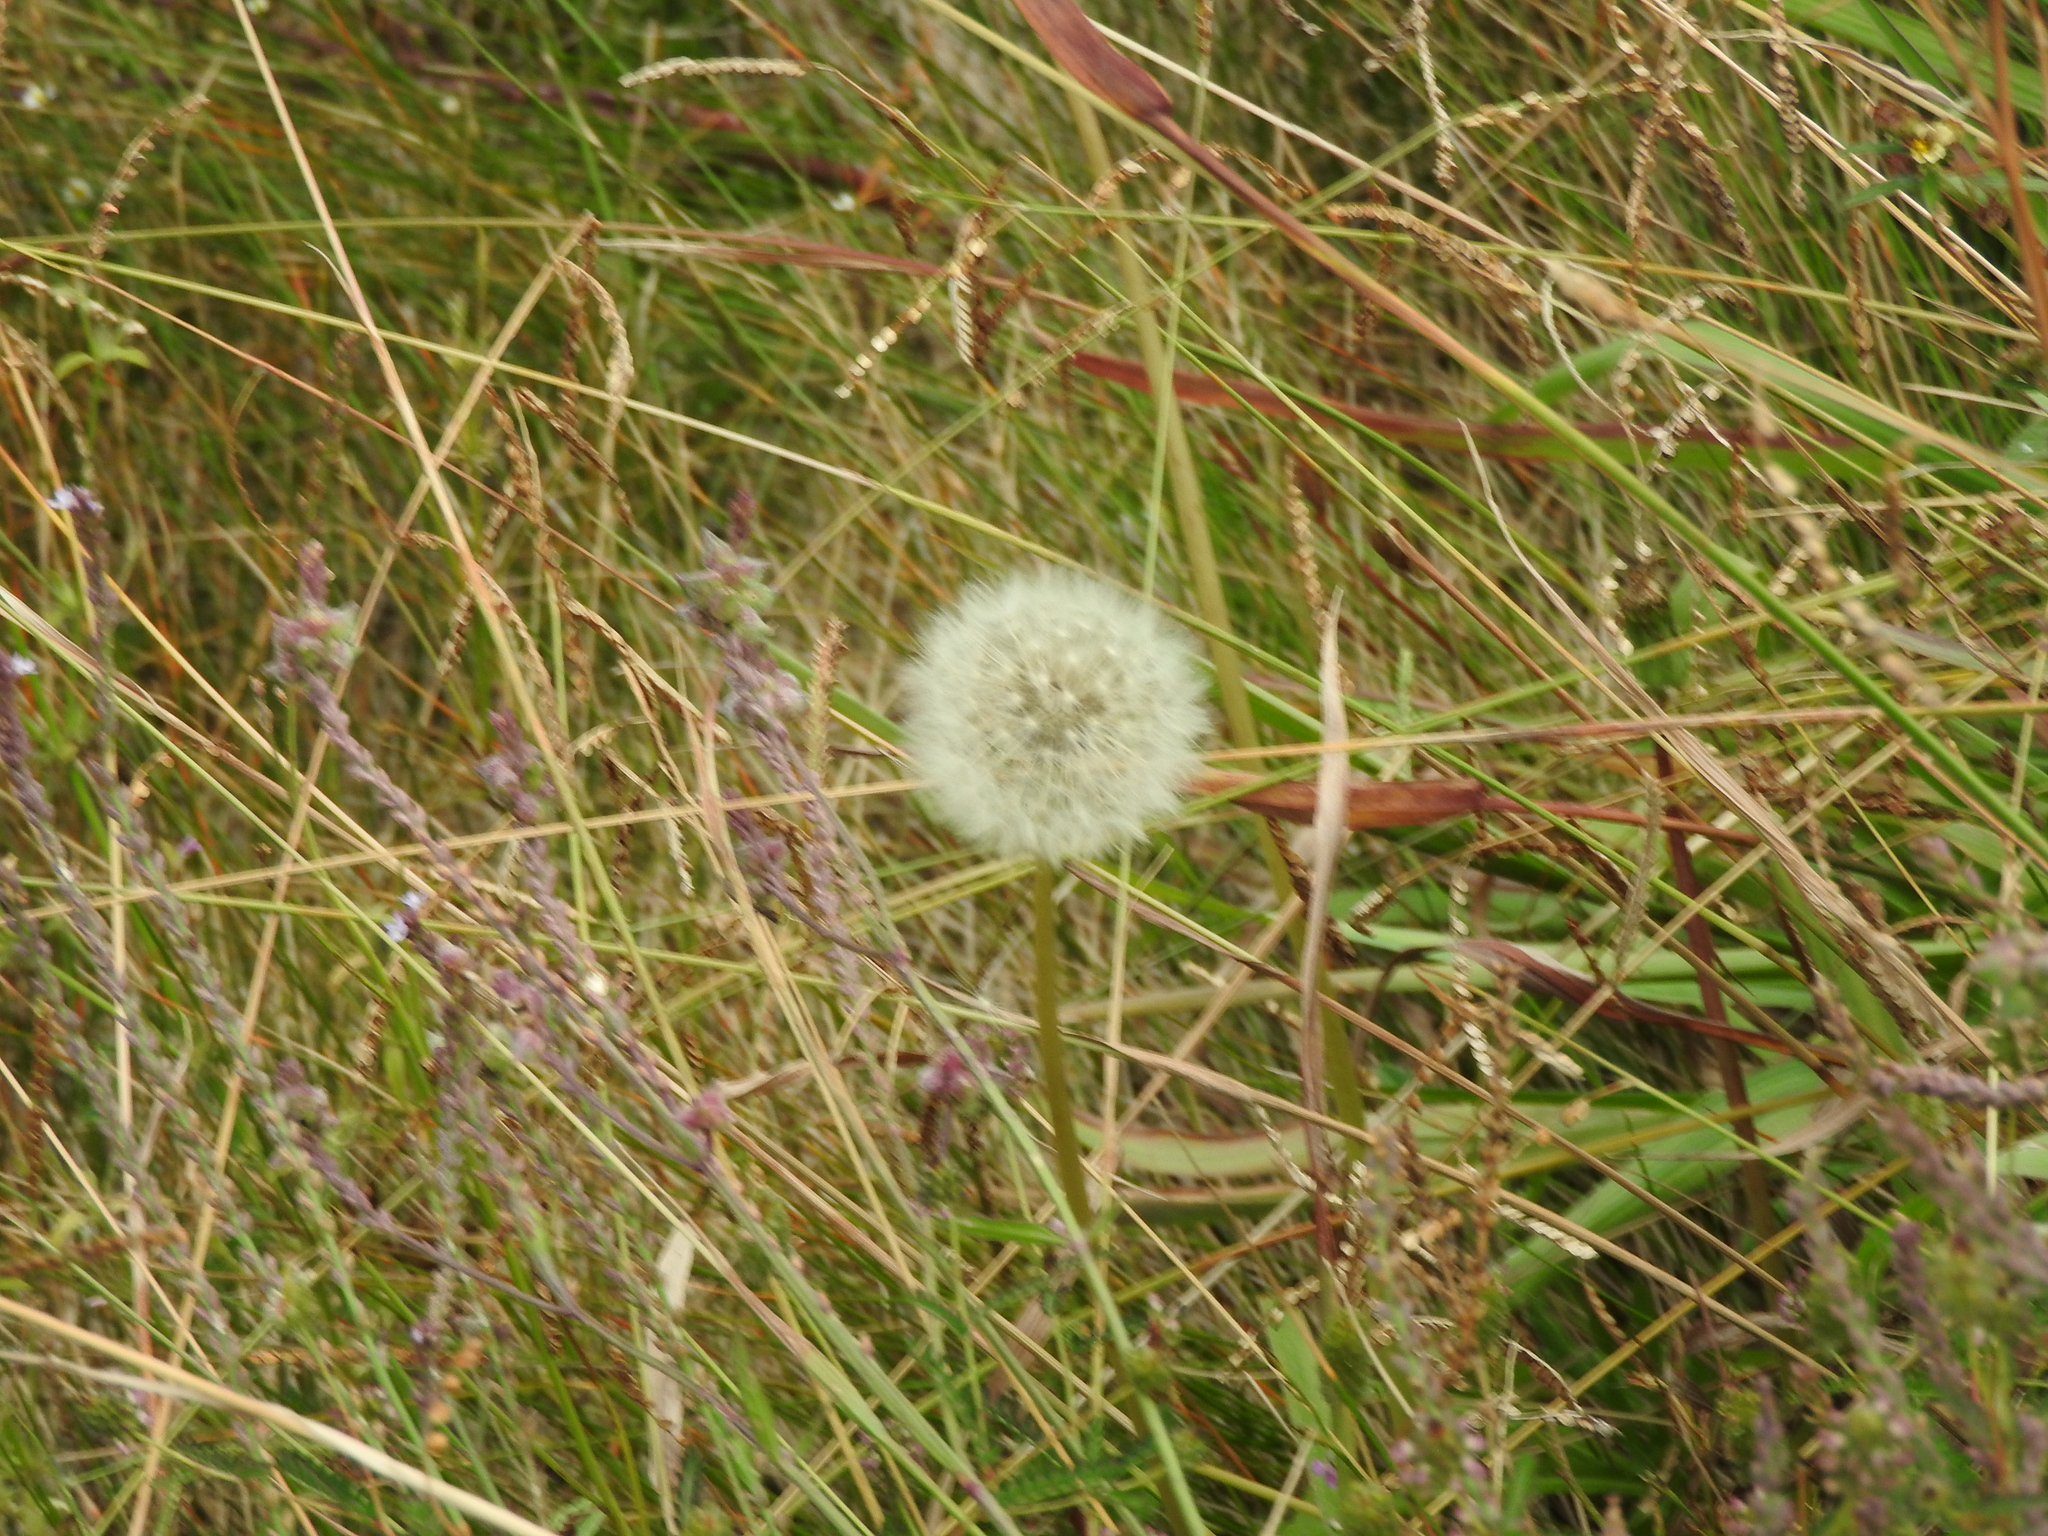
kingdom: Plantae
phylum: Tracheophyta
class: Magnoliopsida
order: Asterales
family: Asteraceae
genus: Taraxacum
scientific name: Taraxacum officinale
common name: Common dandelion
